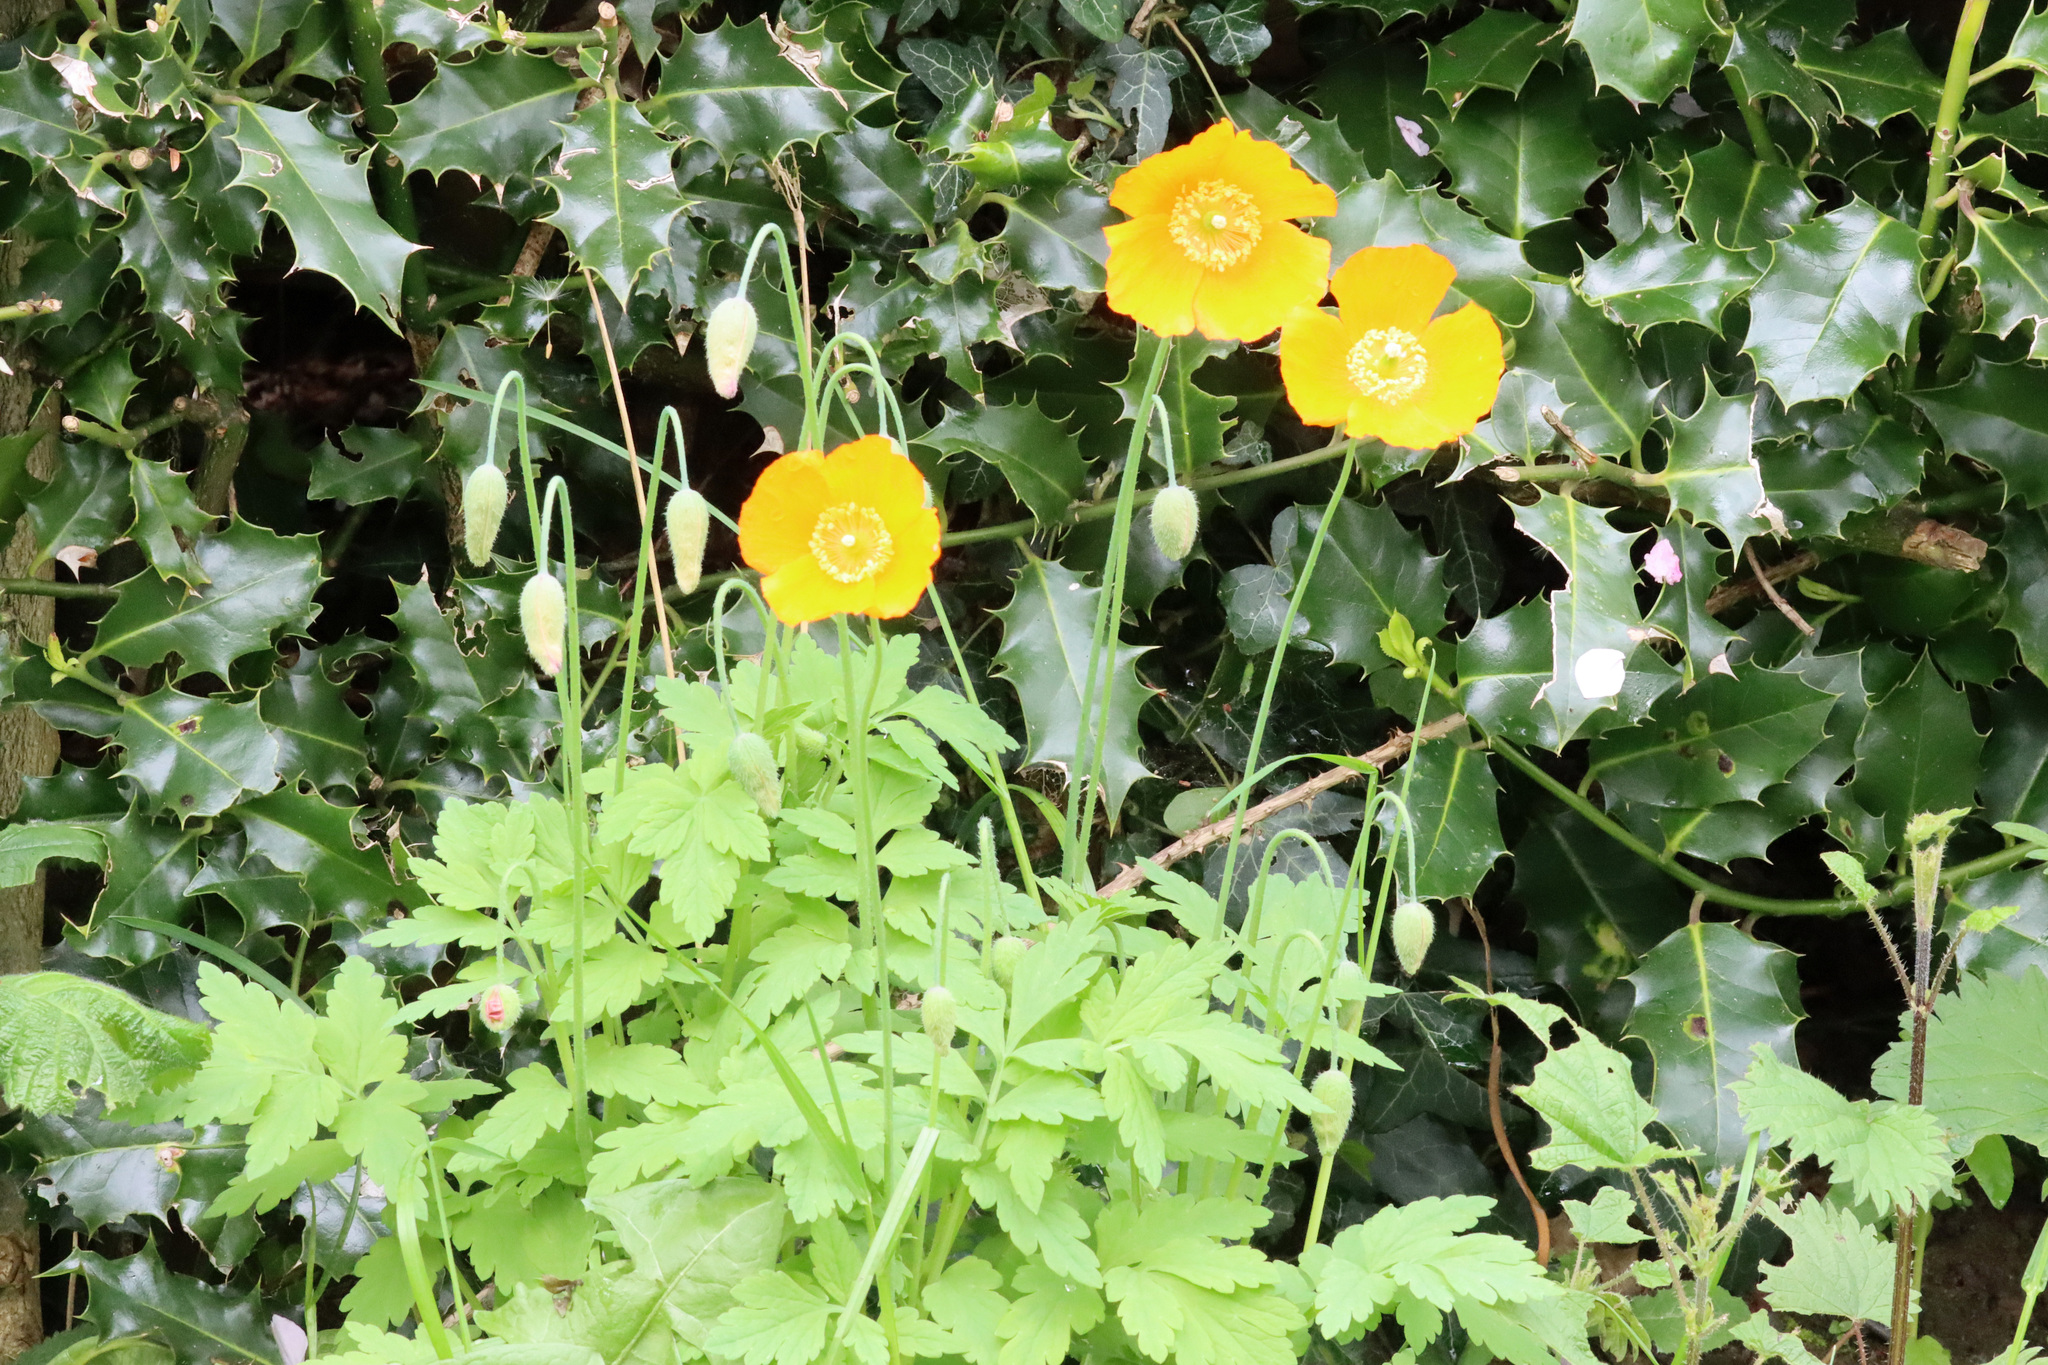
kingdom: Plantae
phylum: Tracheophyta
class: Magnoliopsida
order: Ranunculales
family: Papaveraceae
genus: Papaver
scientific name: Papaver cambricum
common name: Poppy
